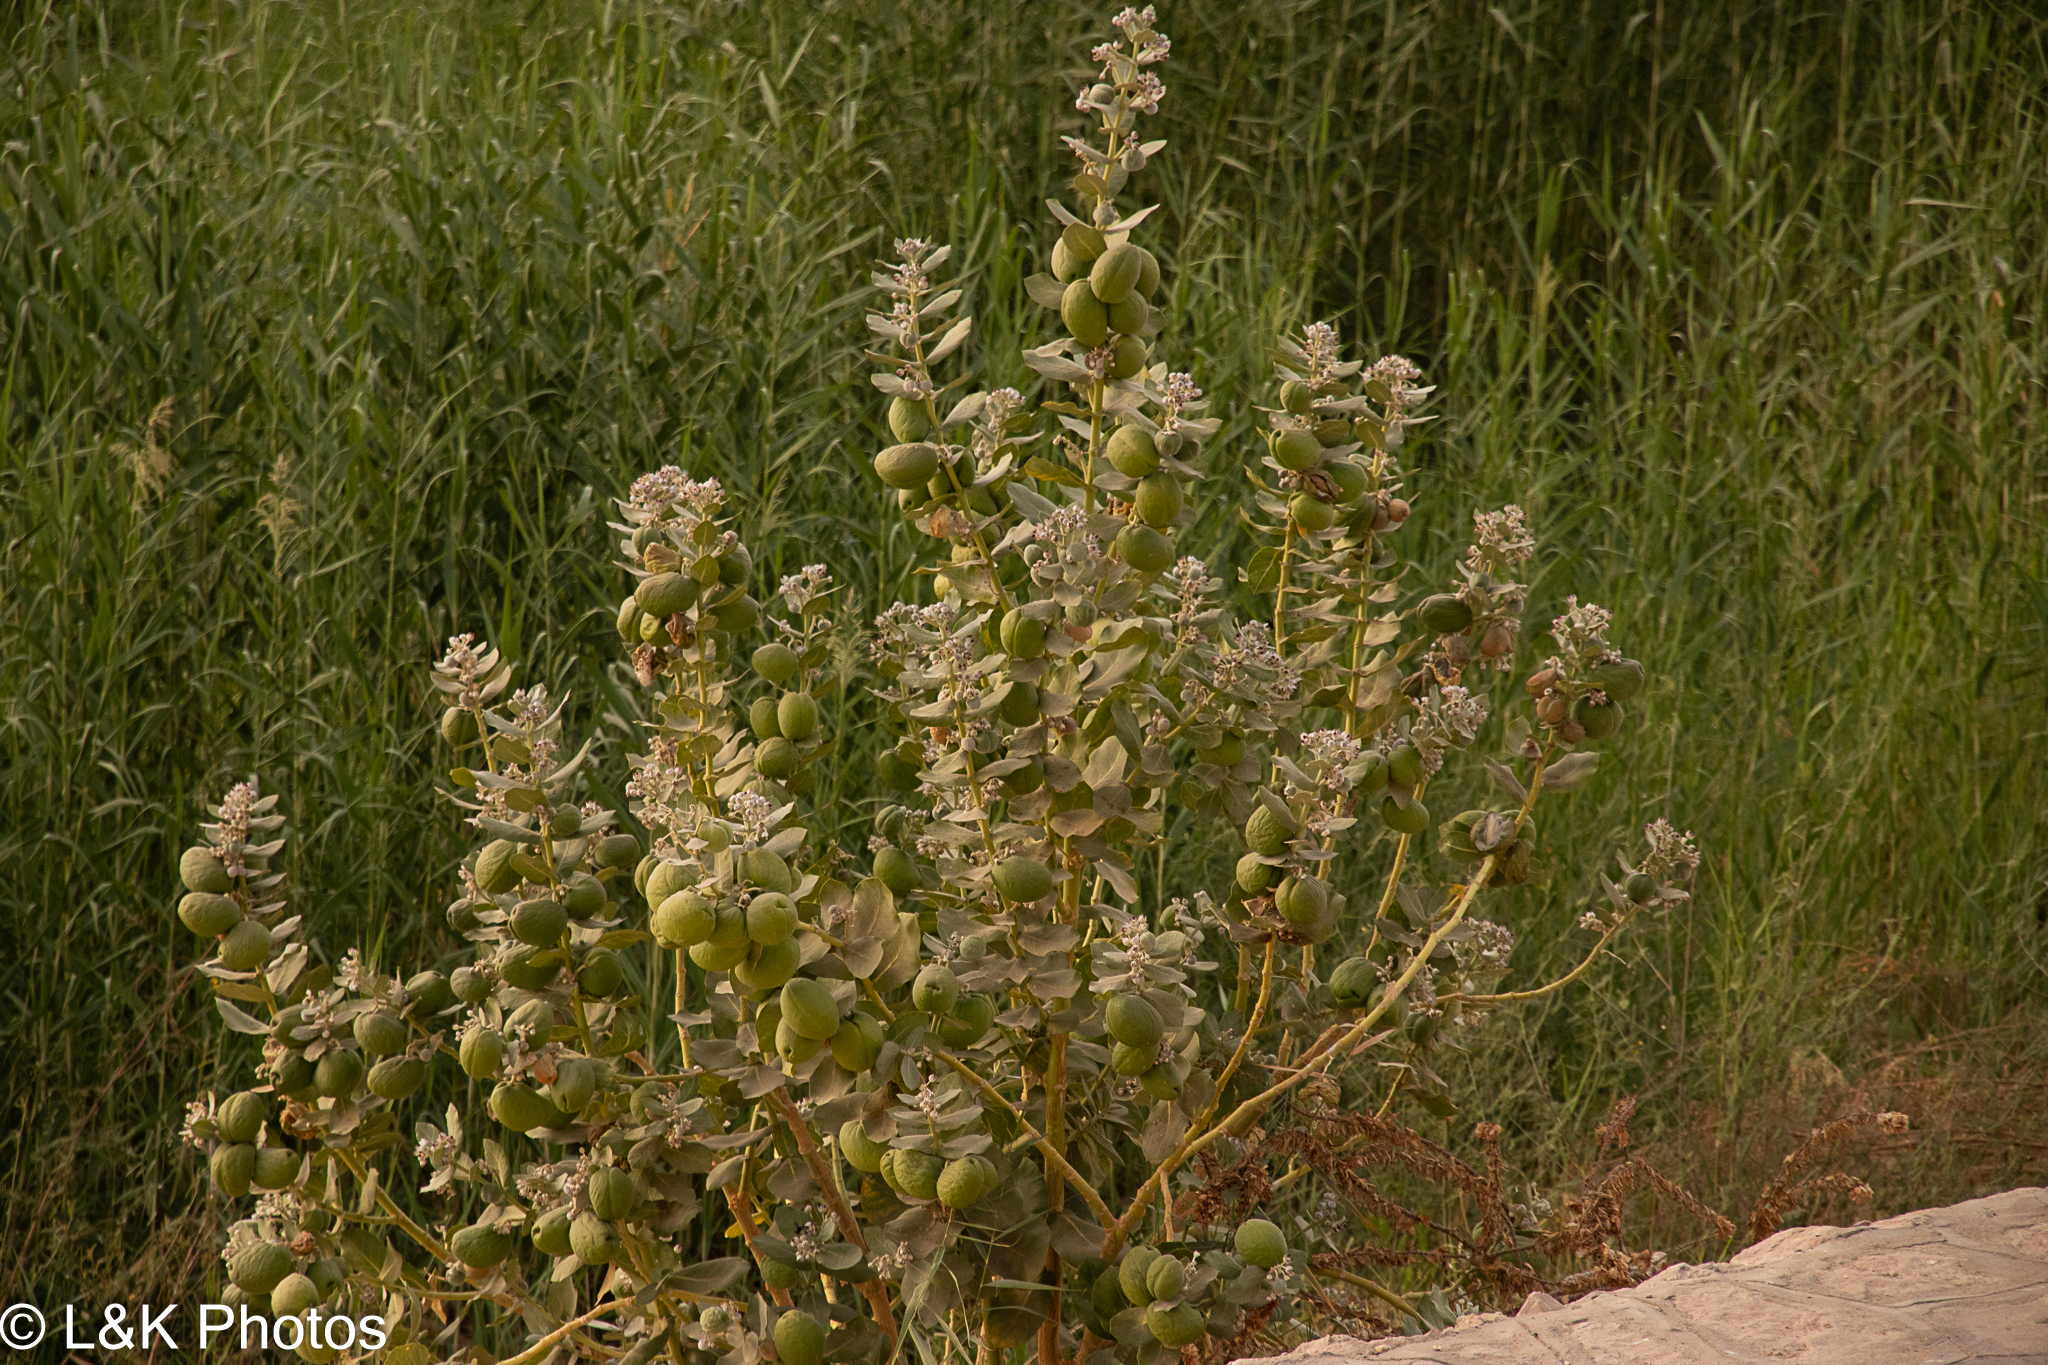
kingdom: Plantae
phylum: Tracheophyta
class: Magnoliopsida
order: Gentianales
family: Apocynaceae
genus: Calotropis
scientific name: Calotropis procera
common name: Roostertree
